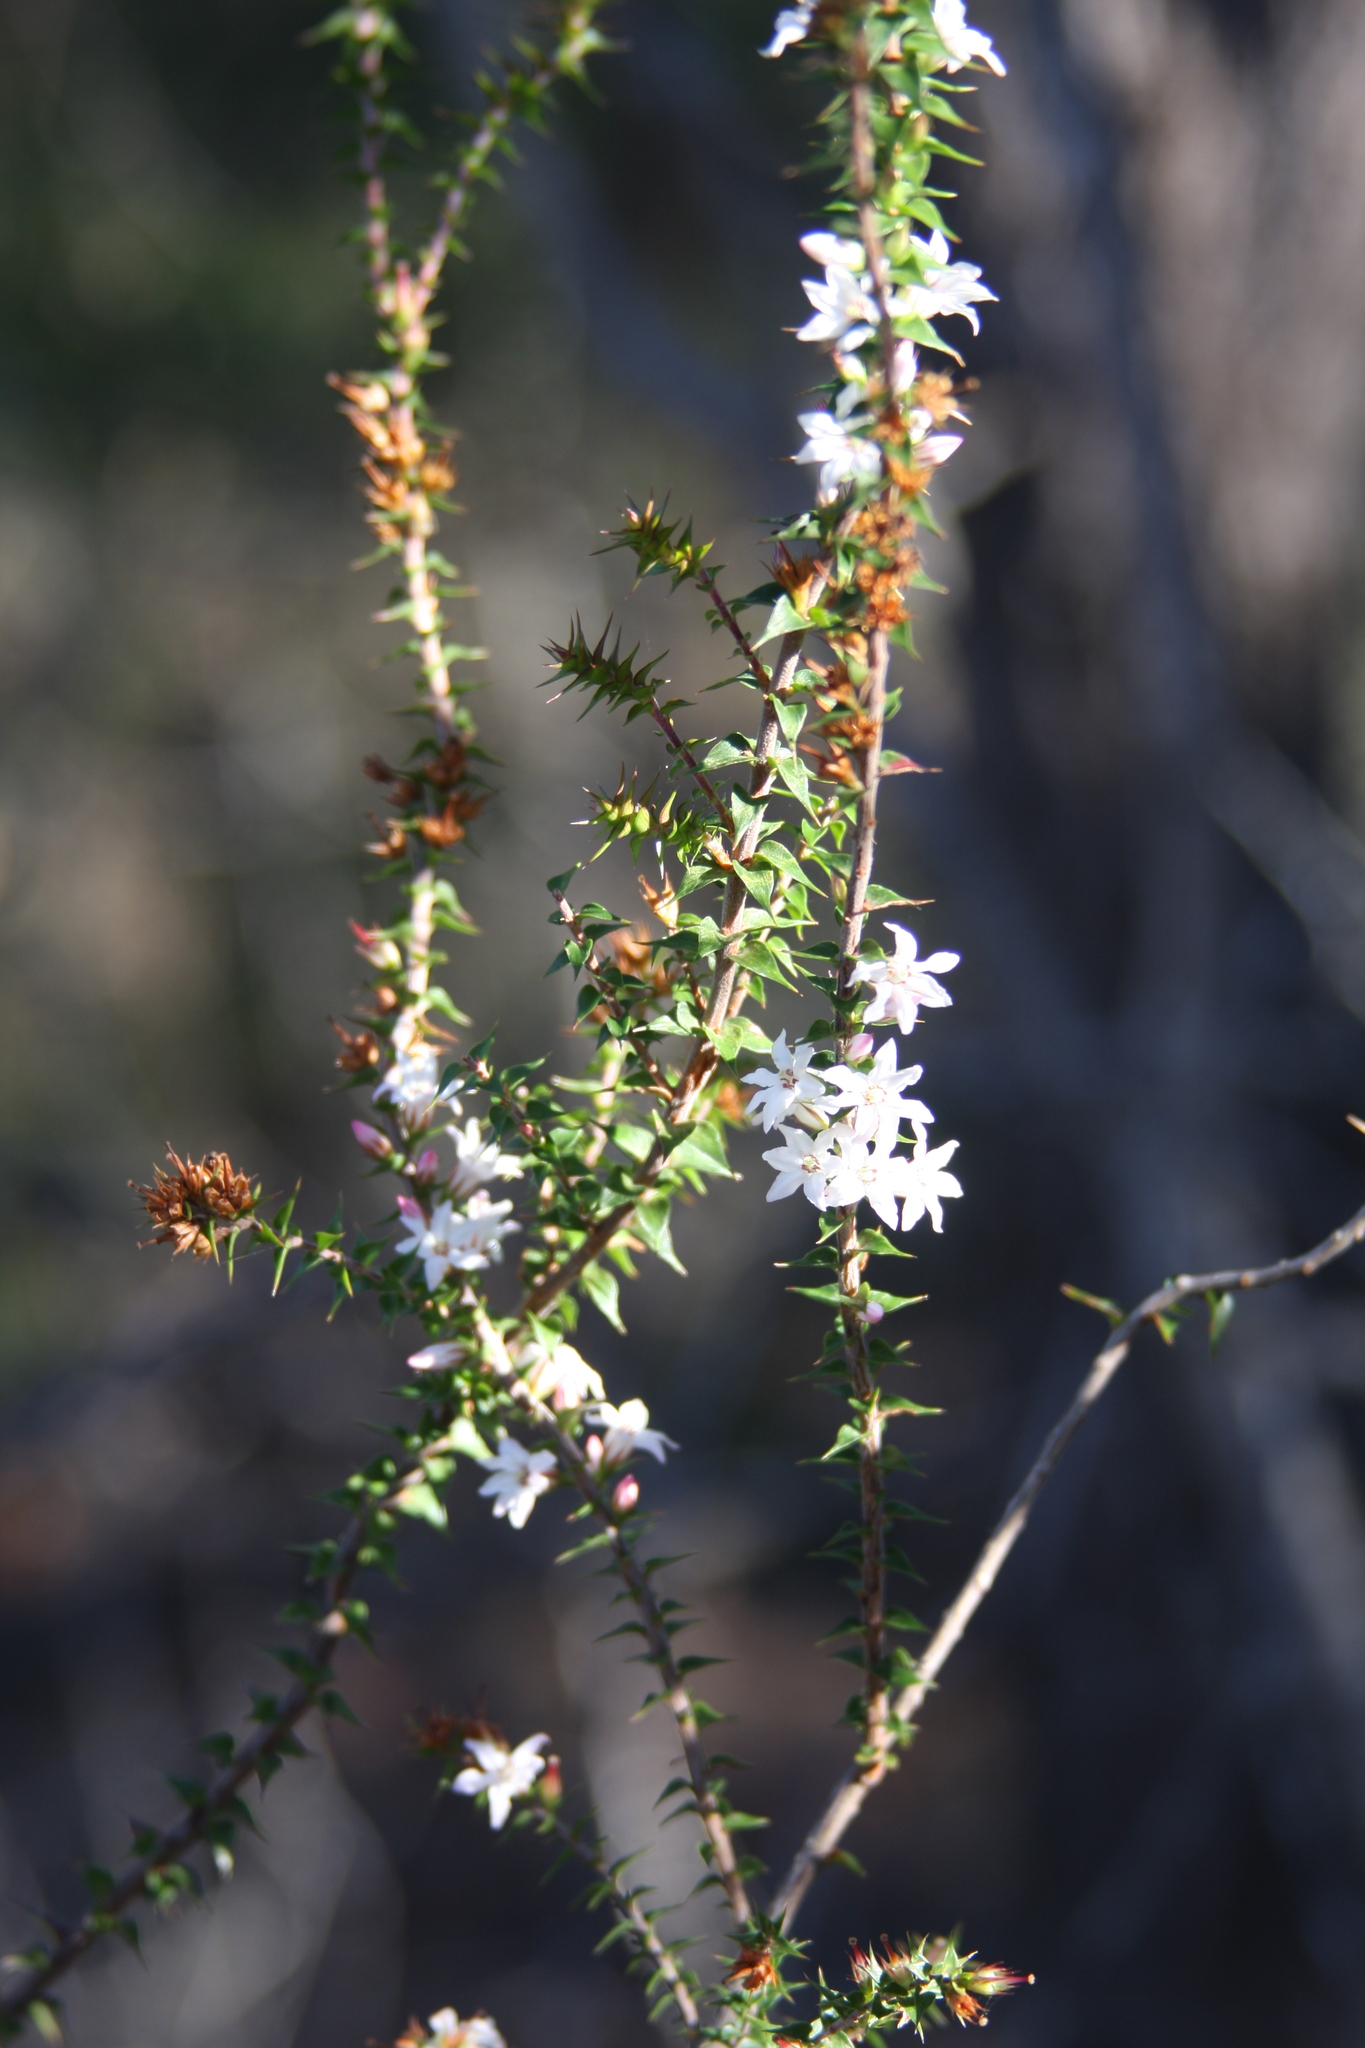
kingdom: Plantae
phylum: Tracheophyta
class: Magnoliopsida
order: Ericales
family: Ericaceae
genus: Epacris
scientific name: Epacris pulchella
